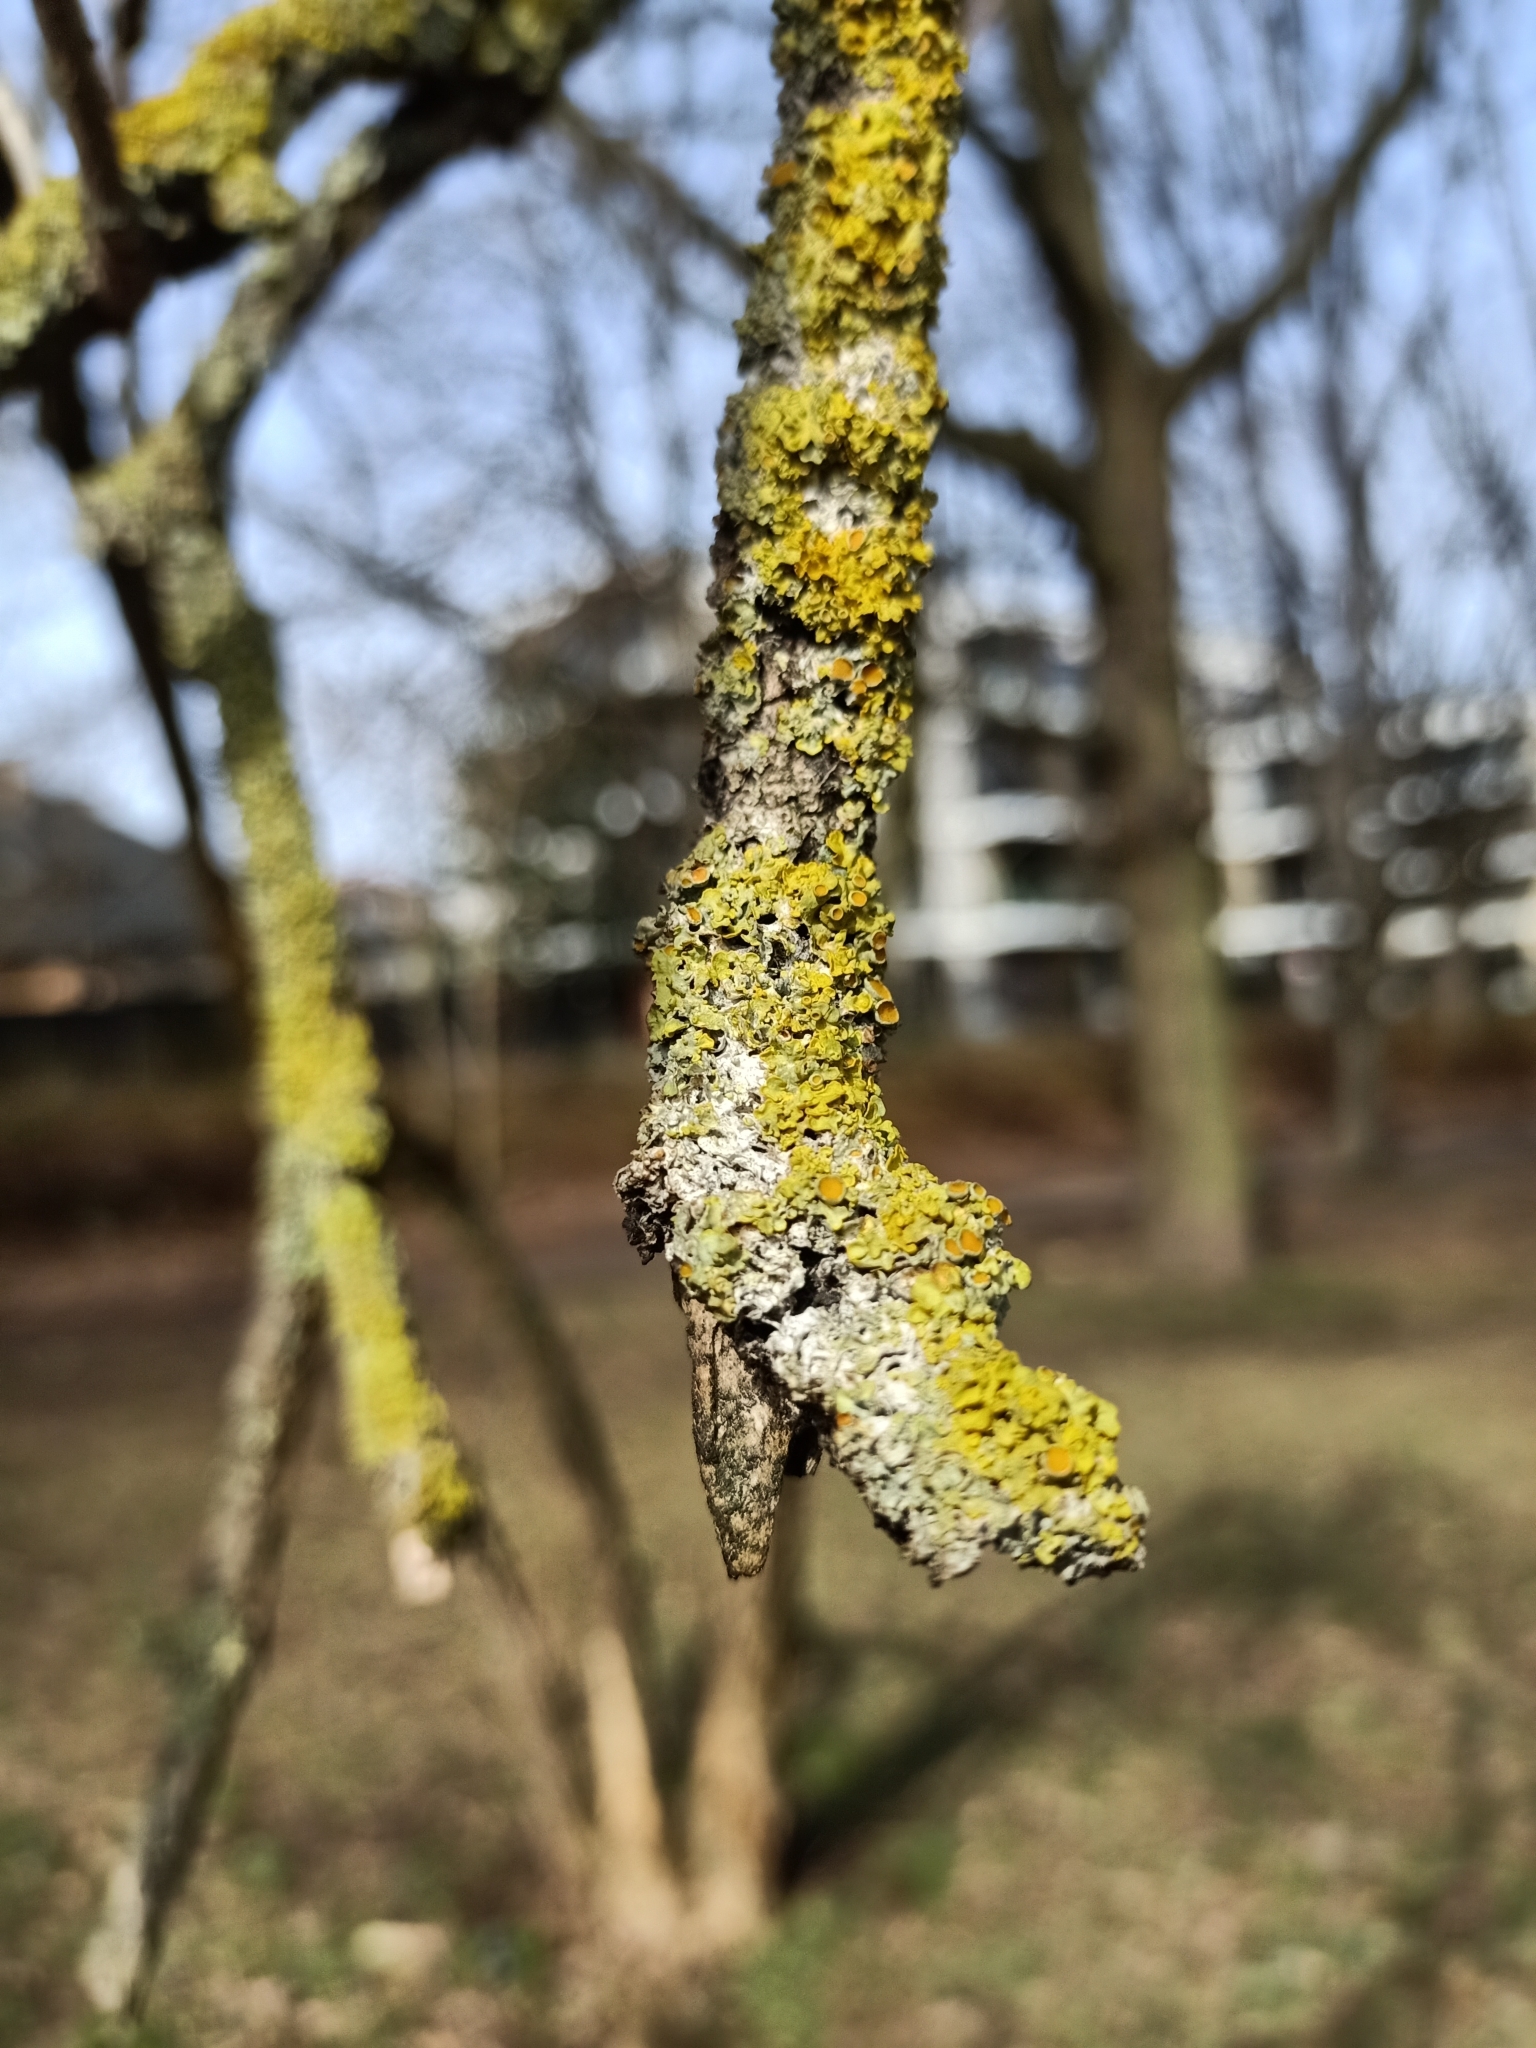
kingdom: Fungi
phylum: Ascomycota
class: Lecanoromycetes
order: Teloschistales
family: Teloschistaceae
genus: Xanthoria
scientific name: Xanthoria parietina
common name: Common orange lichen
